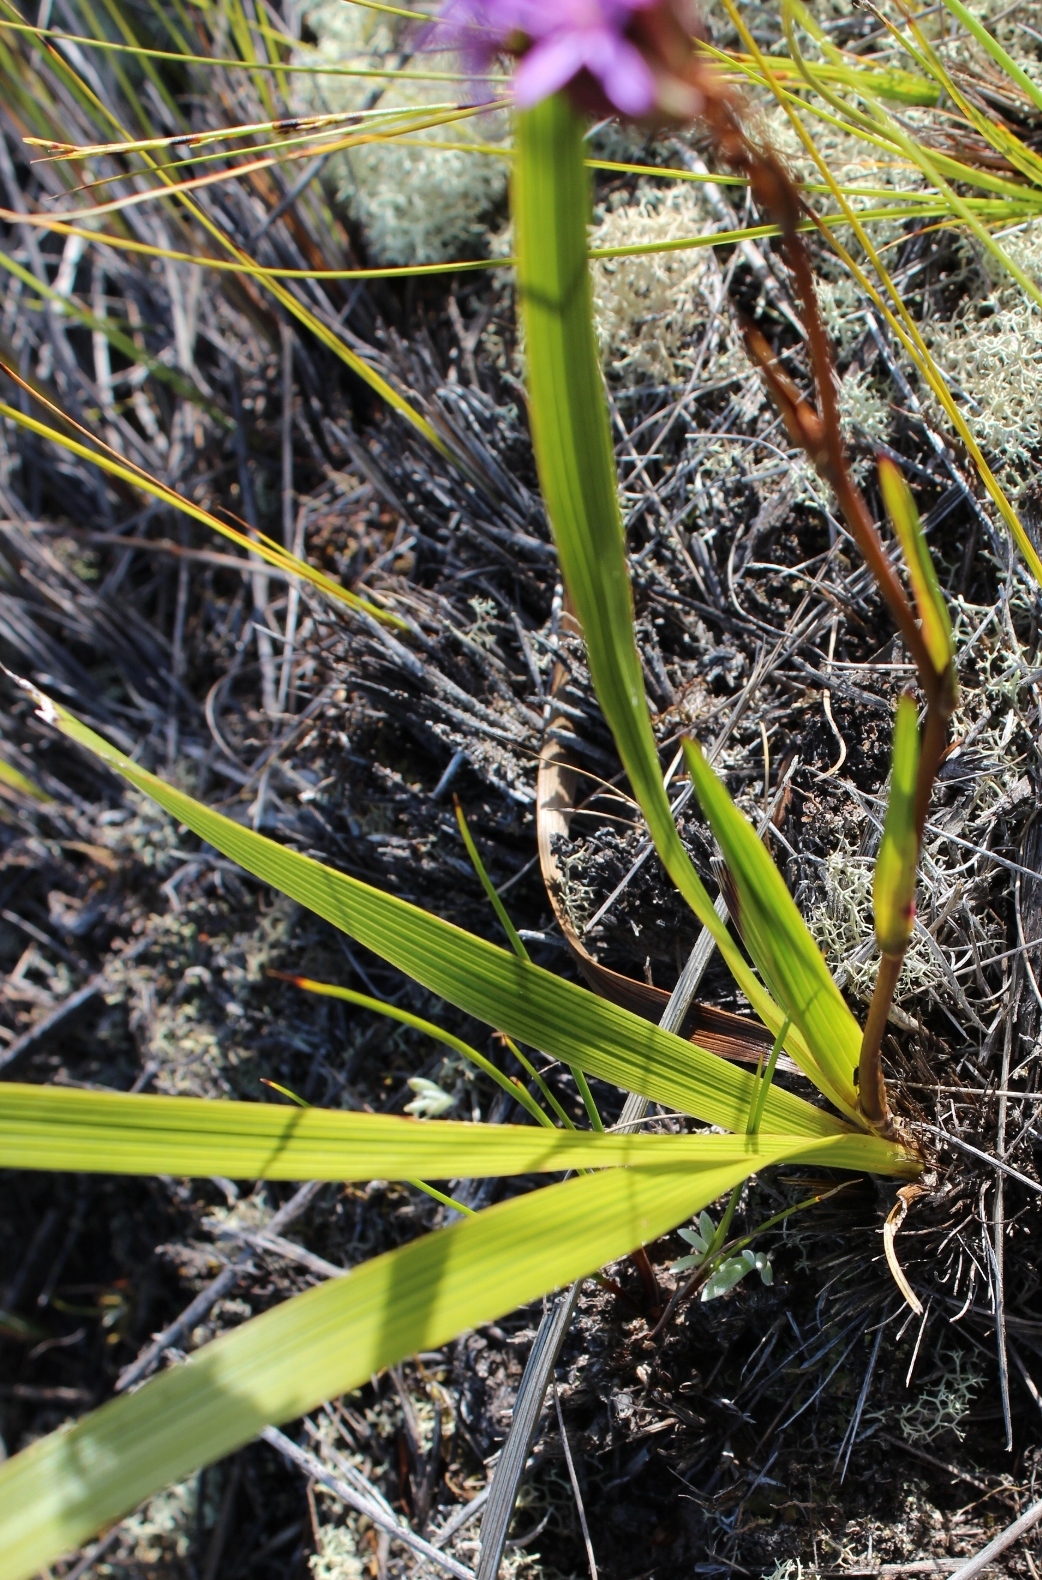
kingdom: Plantae
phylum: Tracheophyta
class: Magnoliopsida
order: Asterales
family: Asteraceae
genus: Corymbium
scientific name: Corymbium glabrum
